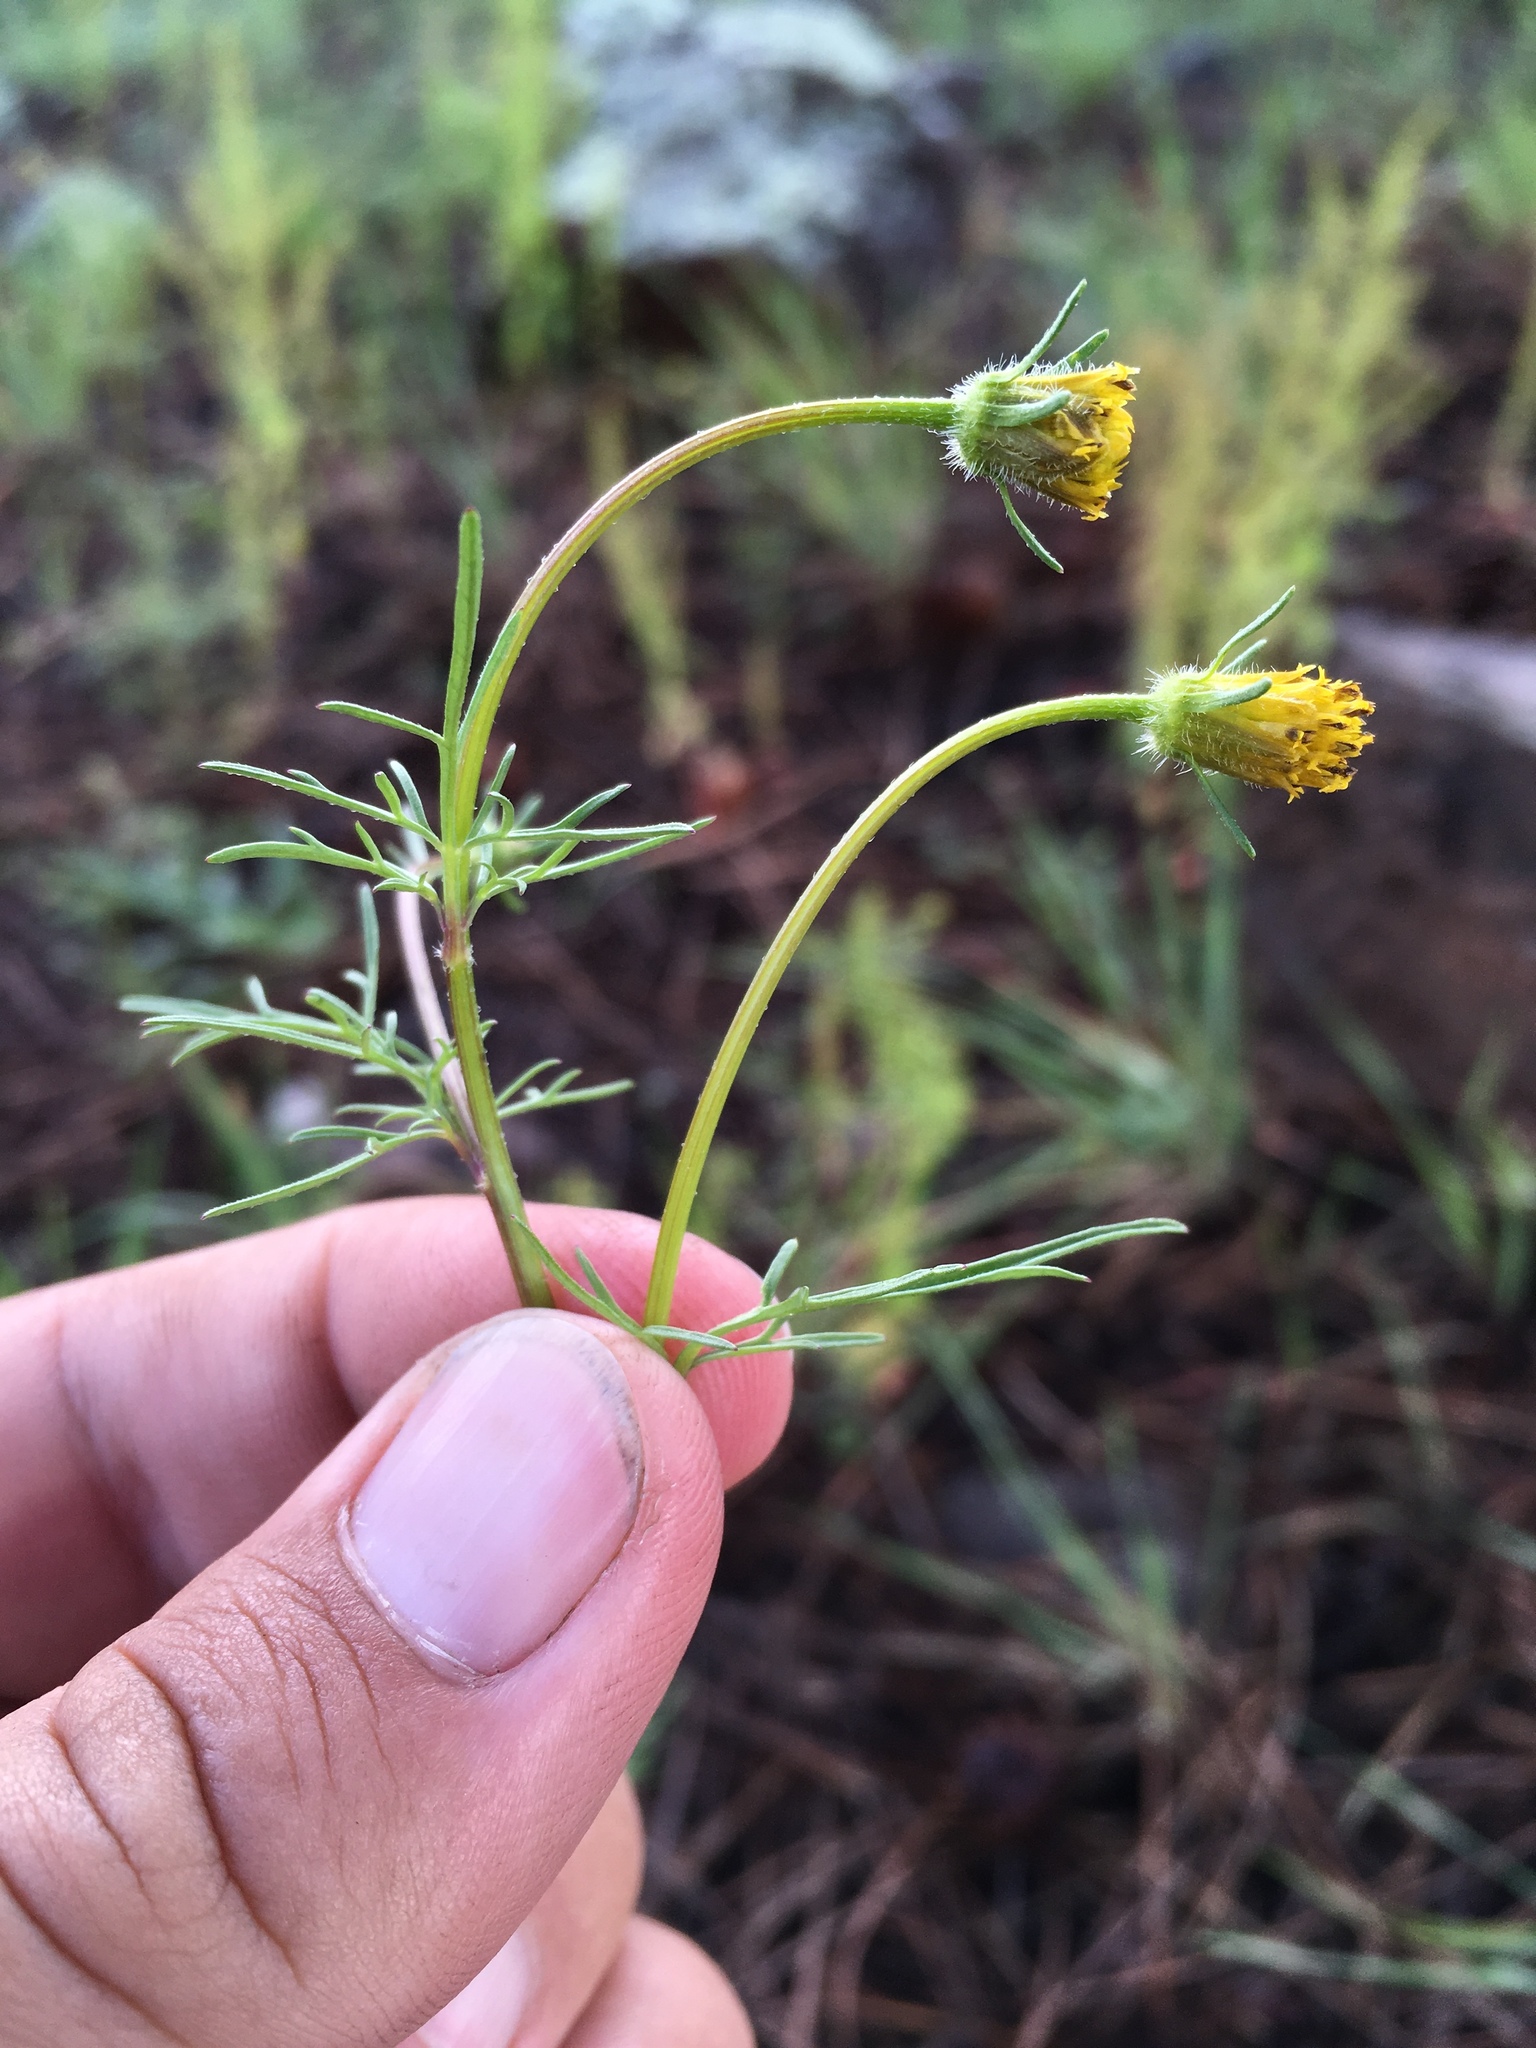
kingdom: Plantae
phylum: Tracheophyta
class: Magnoliopsida
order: Asterales
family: Asteraceae
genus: Bidens
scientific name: Bidens tenuisecta
